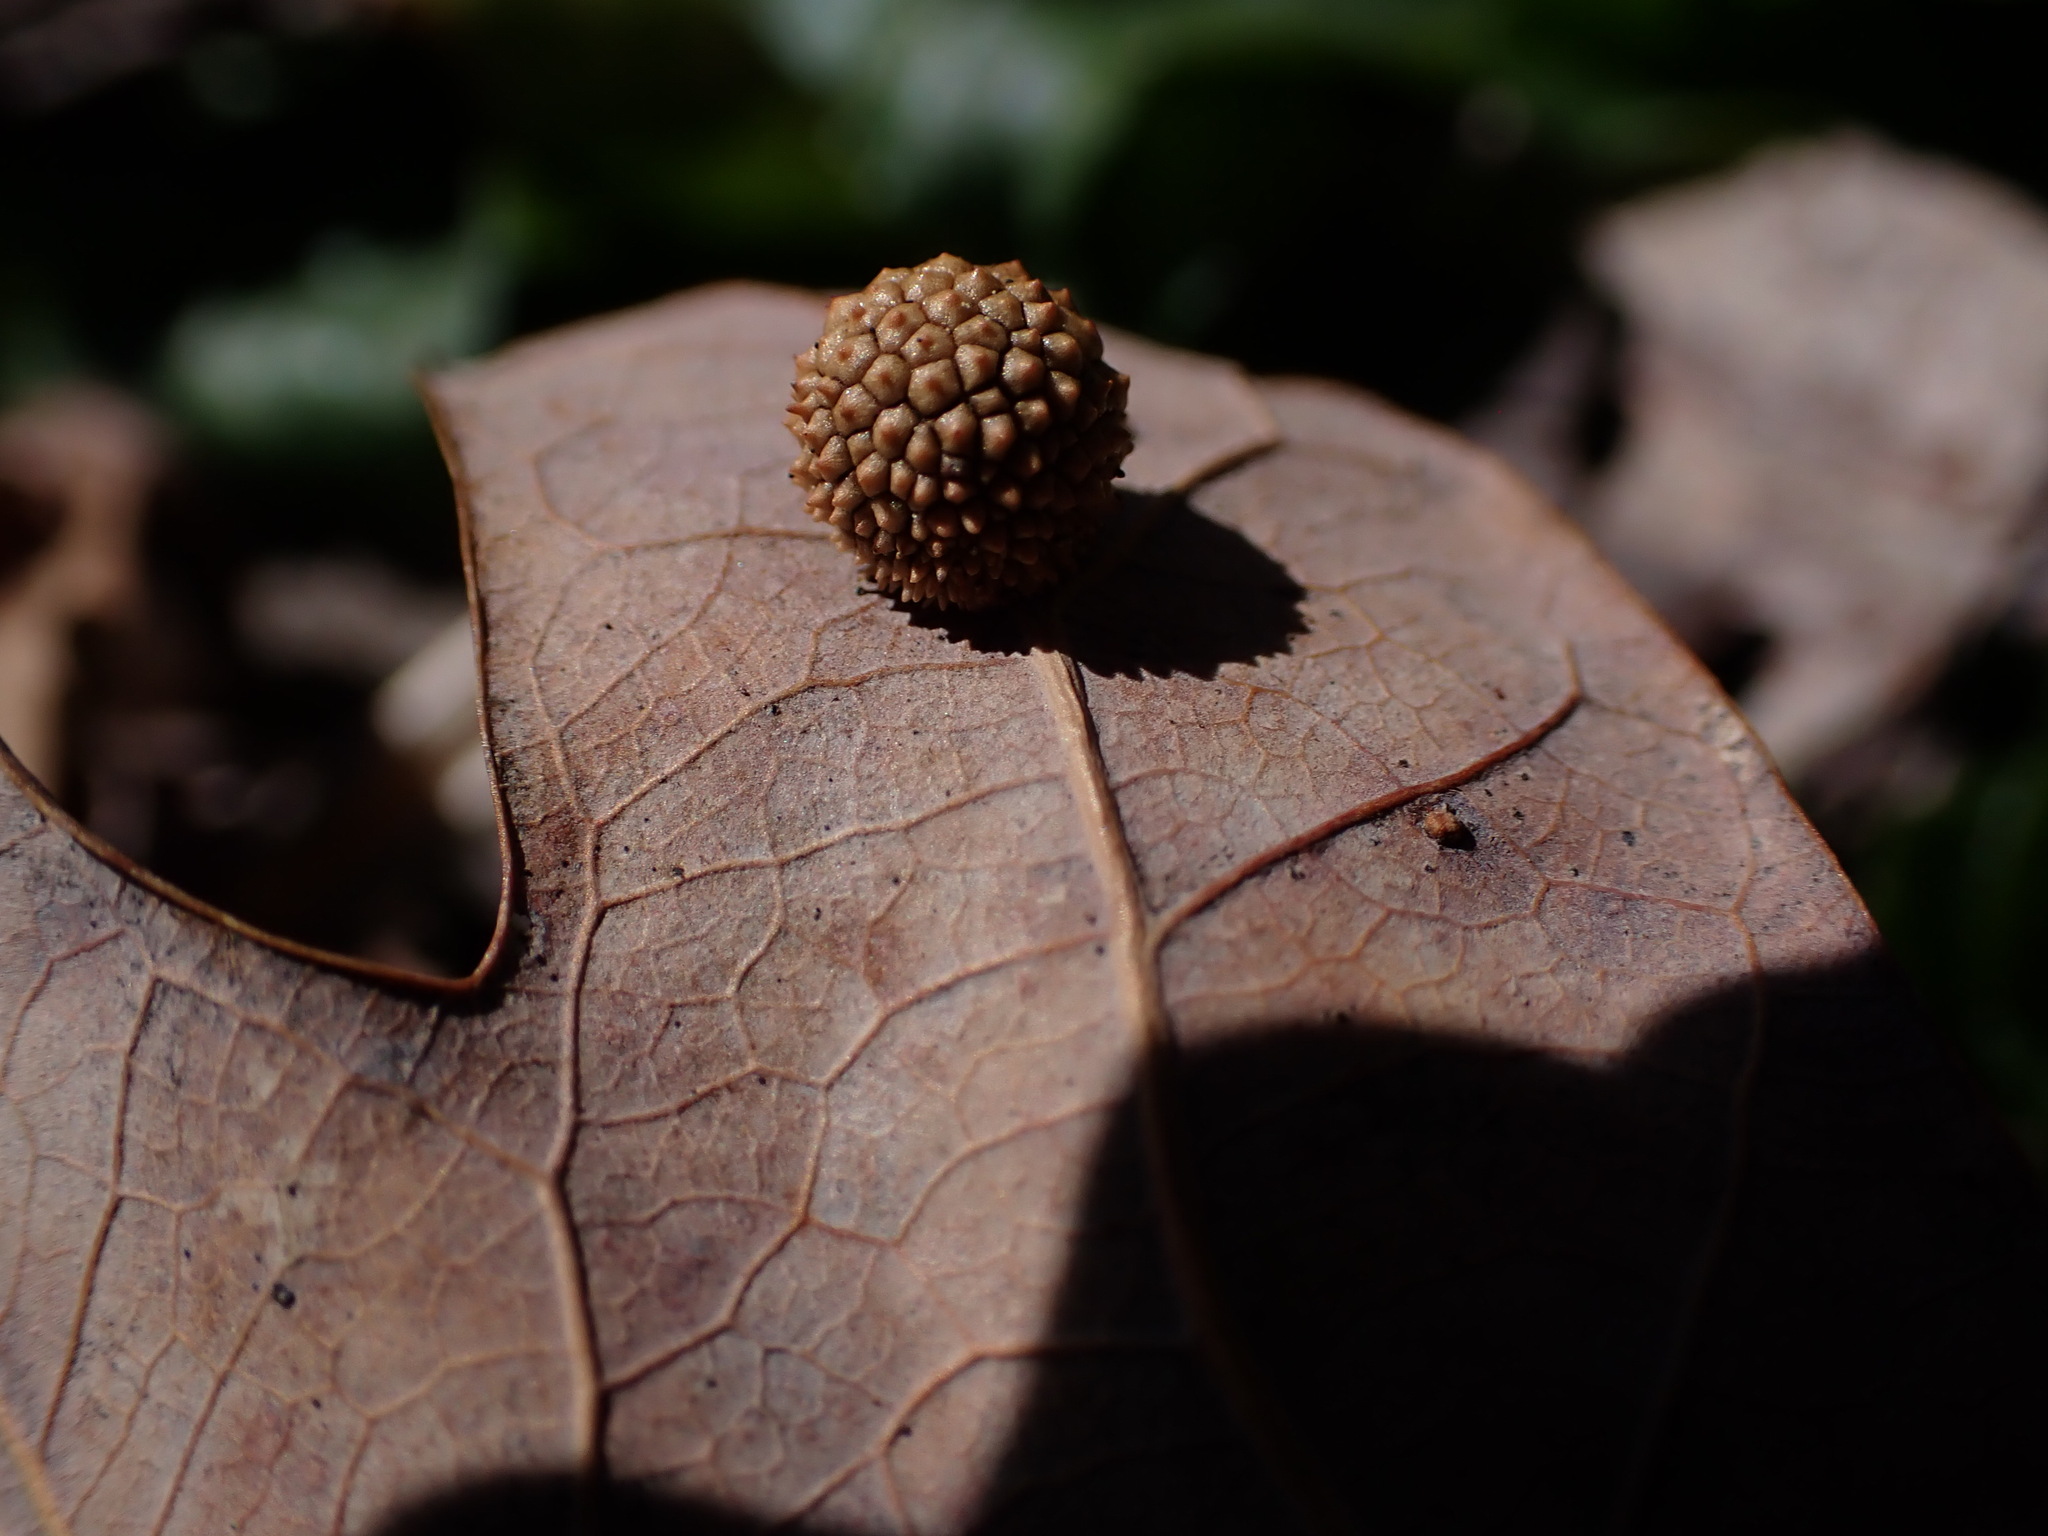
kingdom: Animalia
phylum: Arthropoda
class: Insecta
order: Hymenoptera
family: Cynipidae
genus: Acraspis
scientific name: Acraspis
